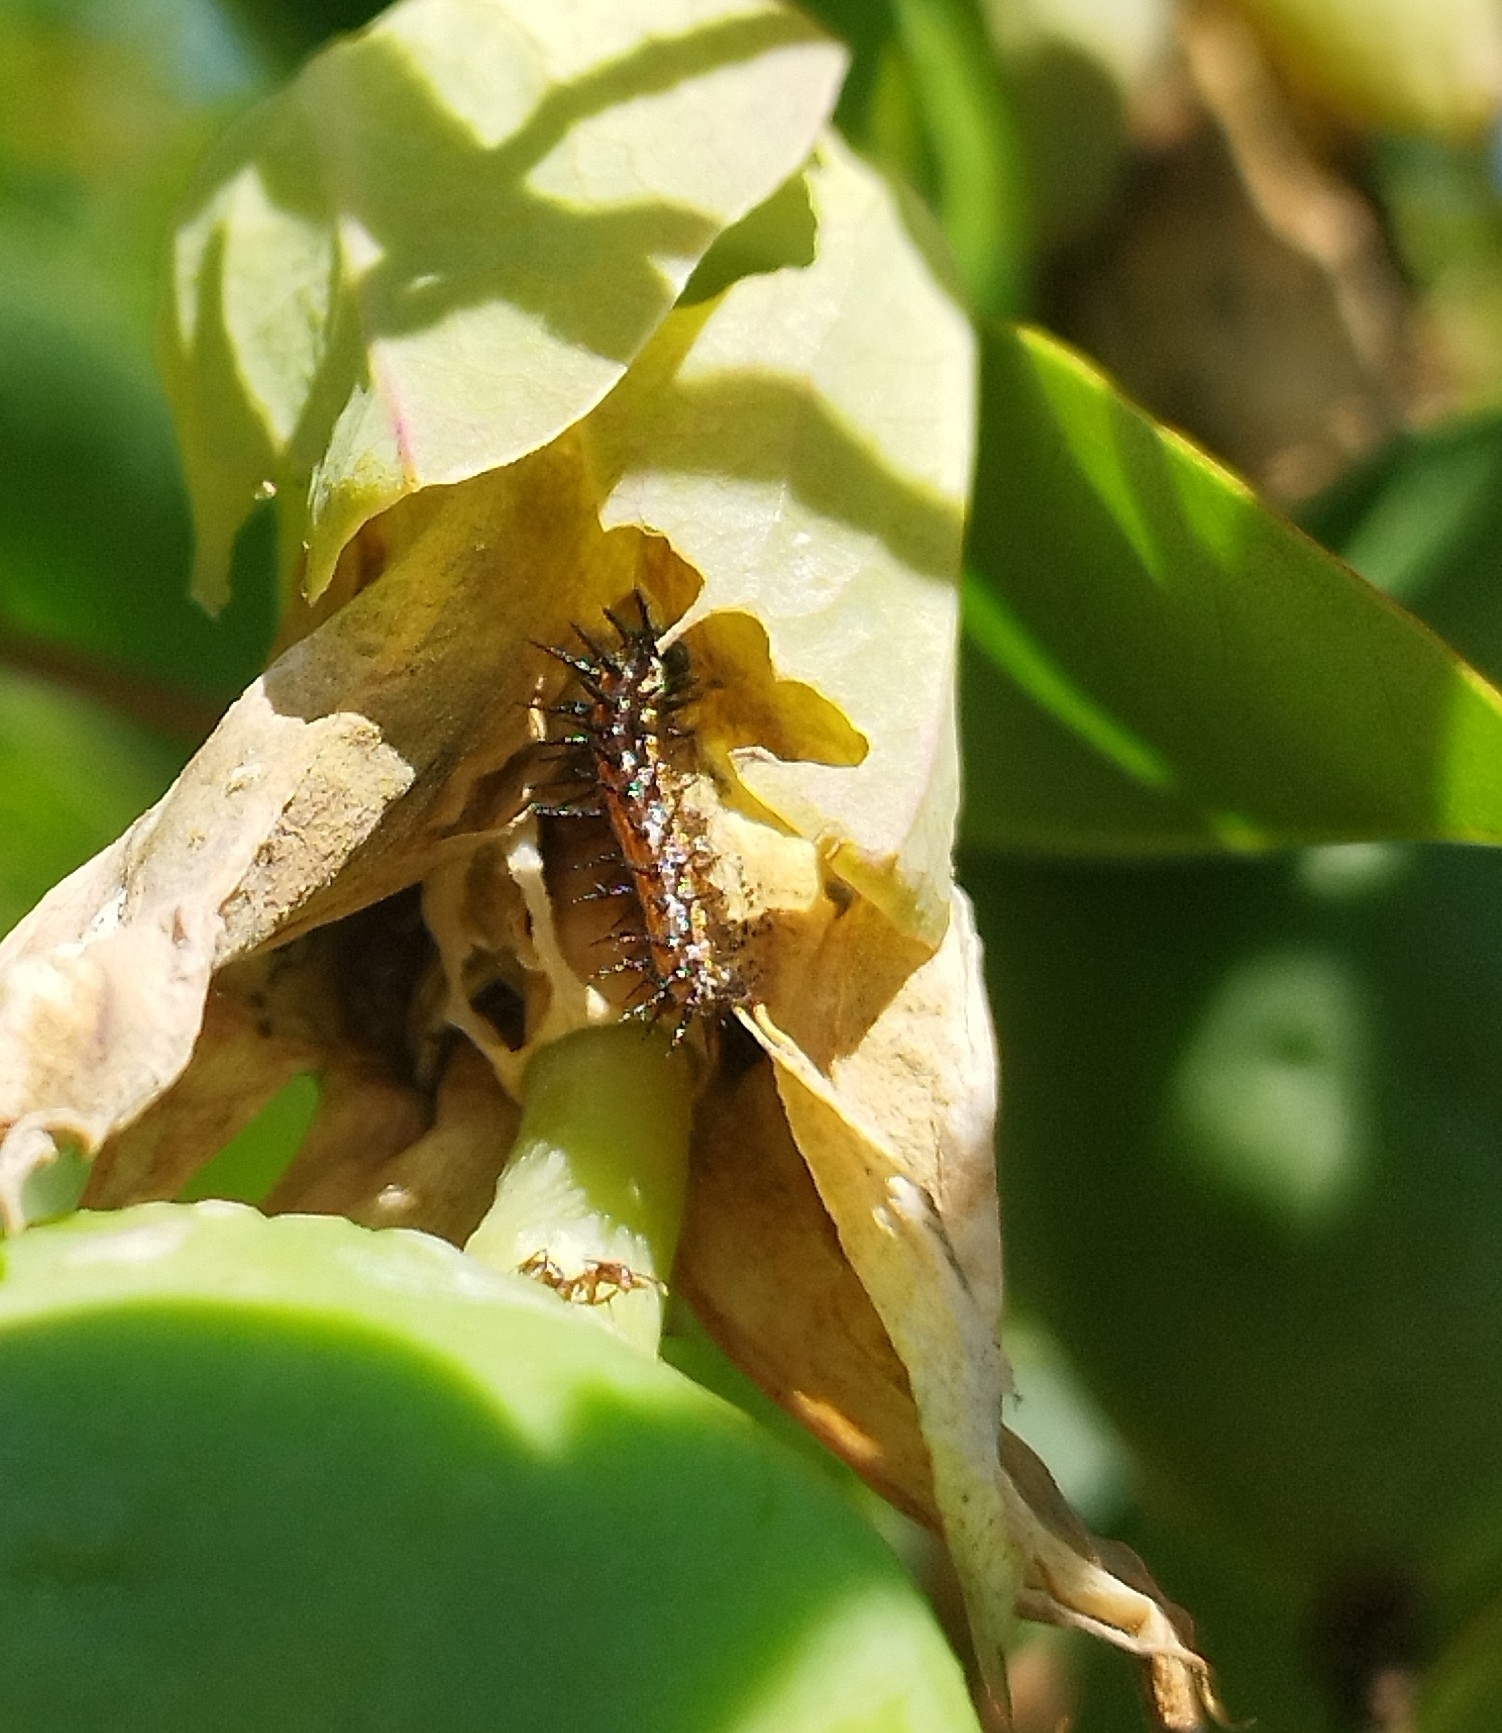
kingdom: Animalia
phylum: Arthropoda
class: Insecta
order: Lepidoptera
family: Nymphalidae
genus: Dione
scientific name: Dione vanillae
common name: Gulf fritillary
